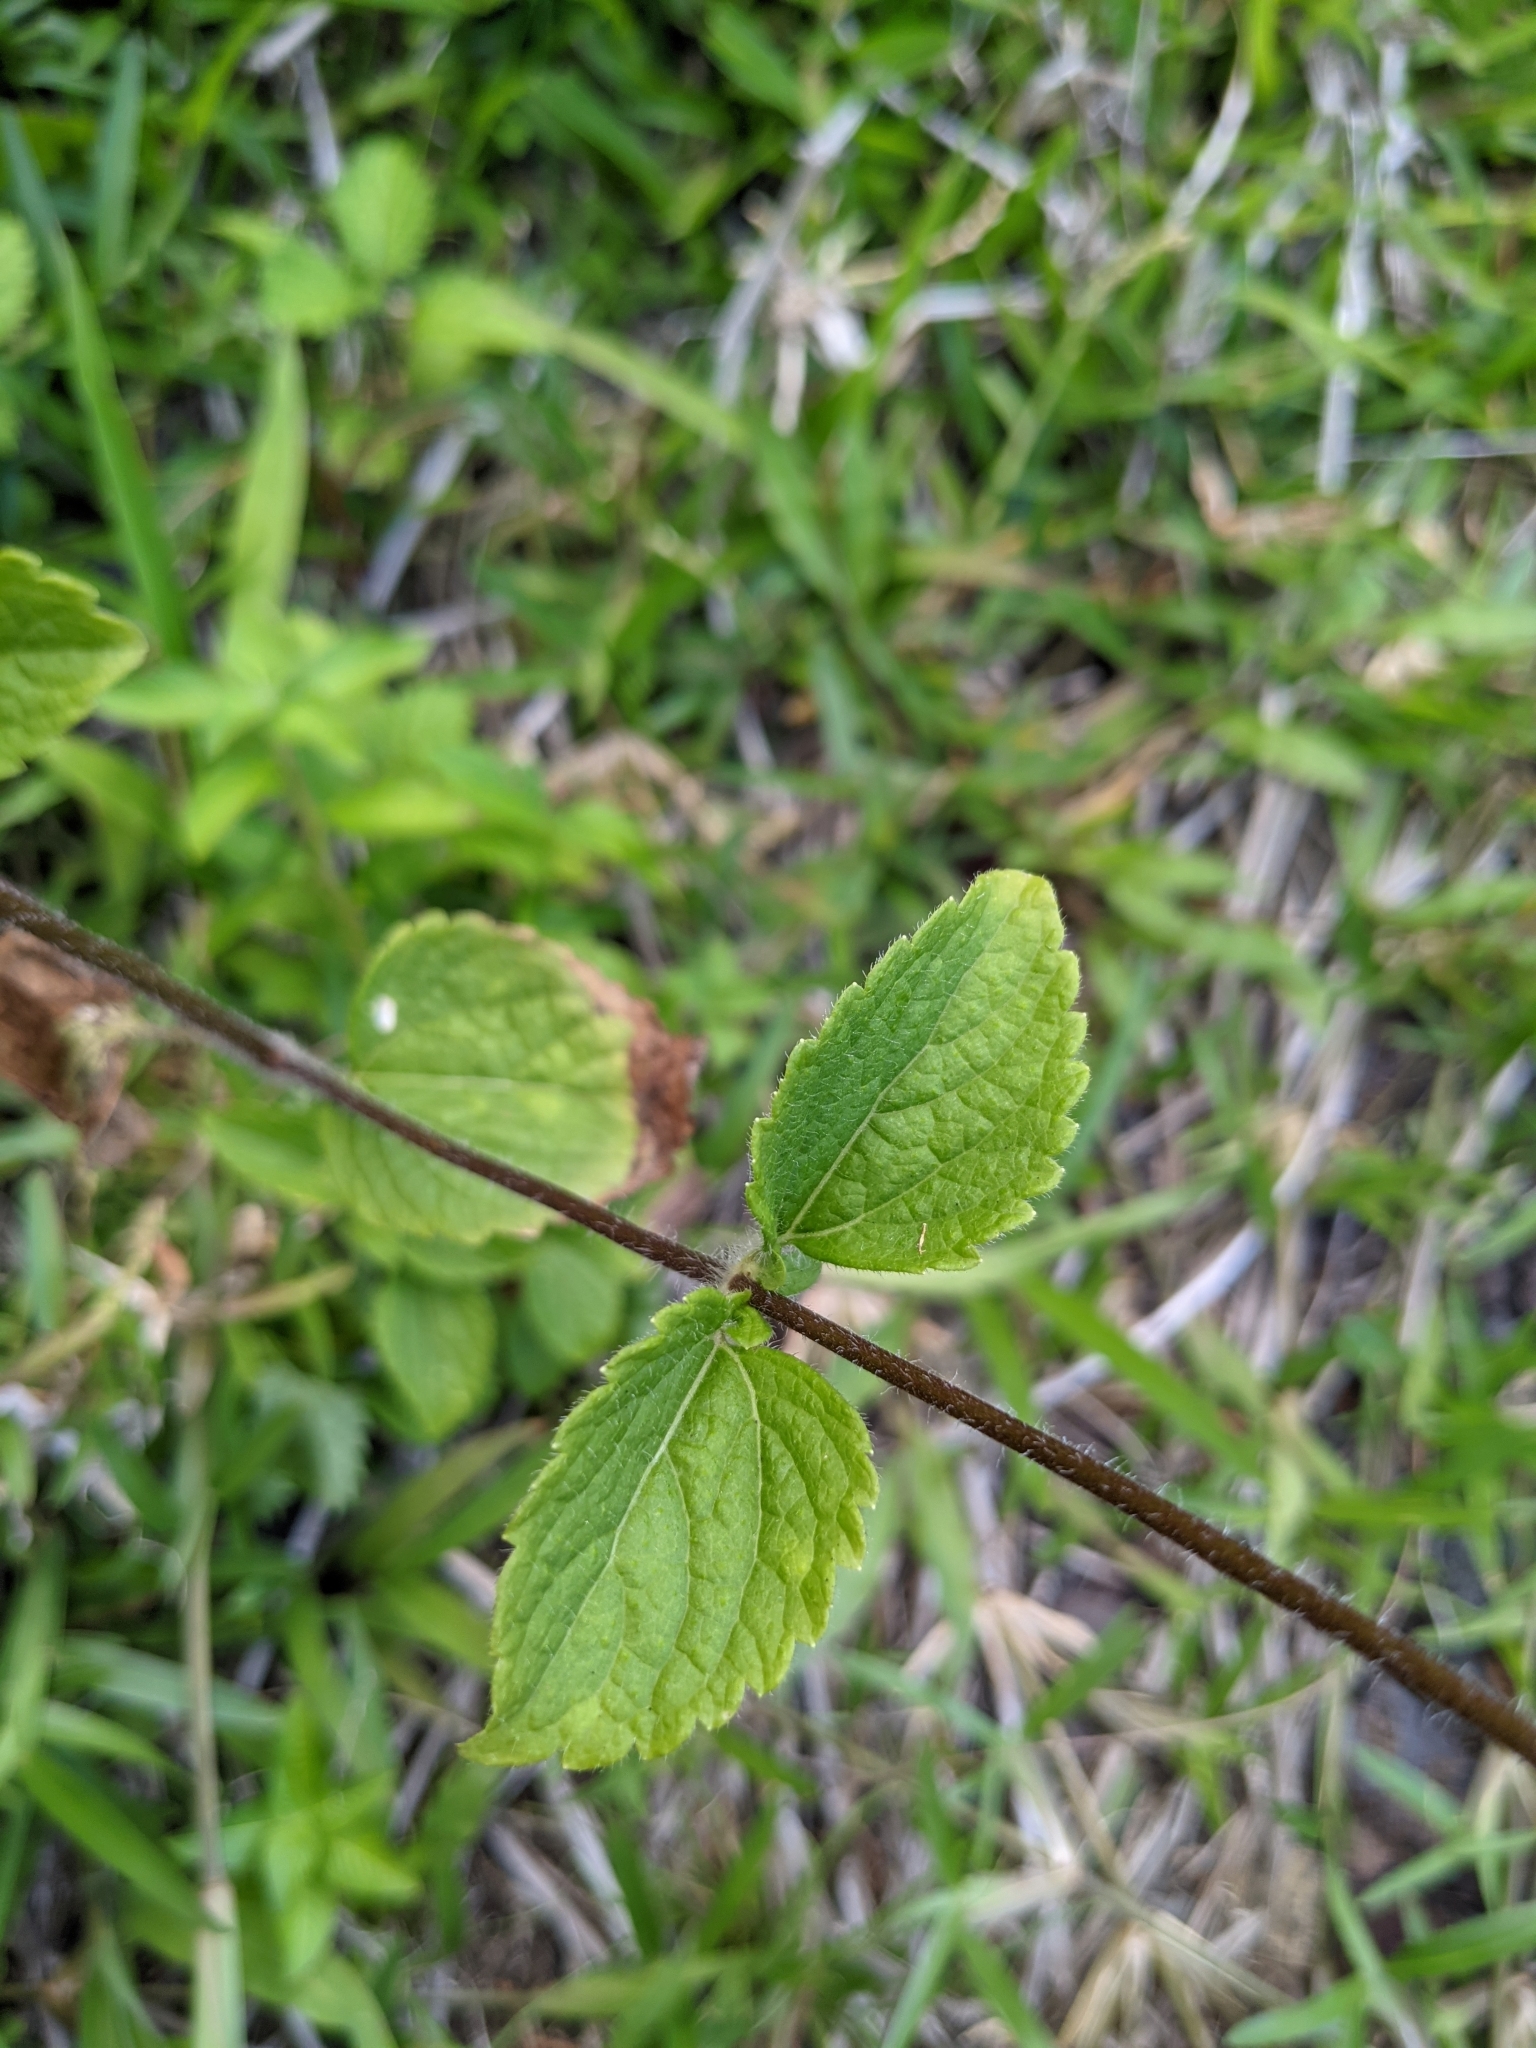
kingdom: Plantae
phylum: Tracheophyta
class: Magnoliopsida
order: Asterales
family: Asteraceae
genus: Ageratum
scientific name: Ageratum conyzoides
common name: Tropical whiteweed
